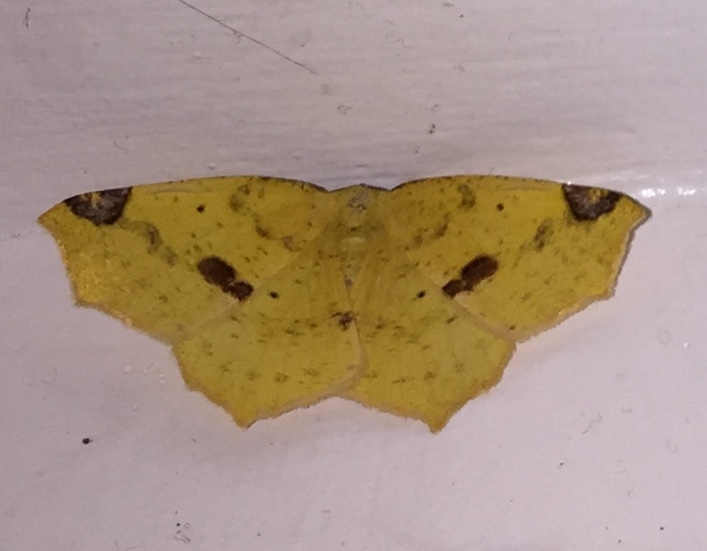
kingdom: Animalia
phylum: Arthropoda
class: Insecta
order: Lepidoptera
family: Geometridae
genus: Antepione
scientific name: Antepione thisoaria
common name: Variable antipione
